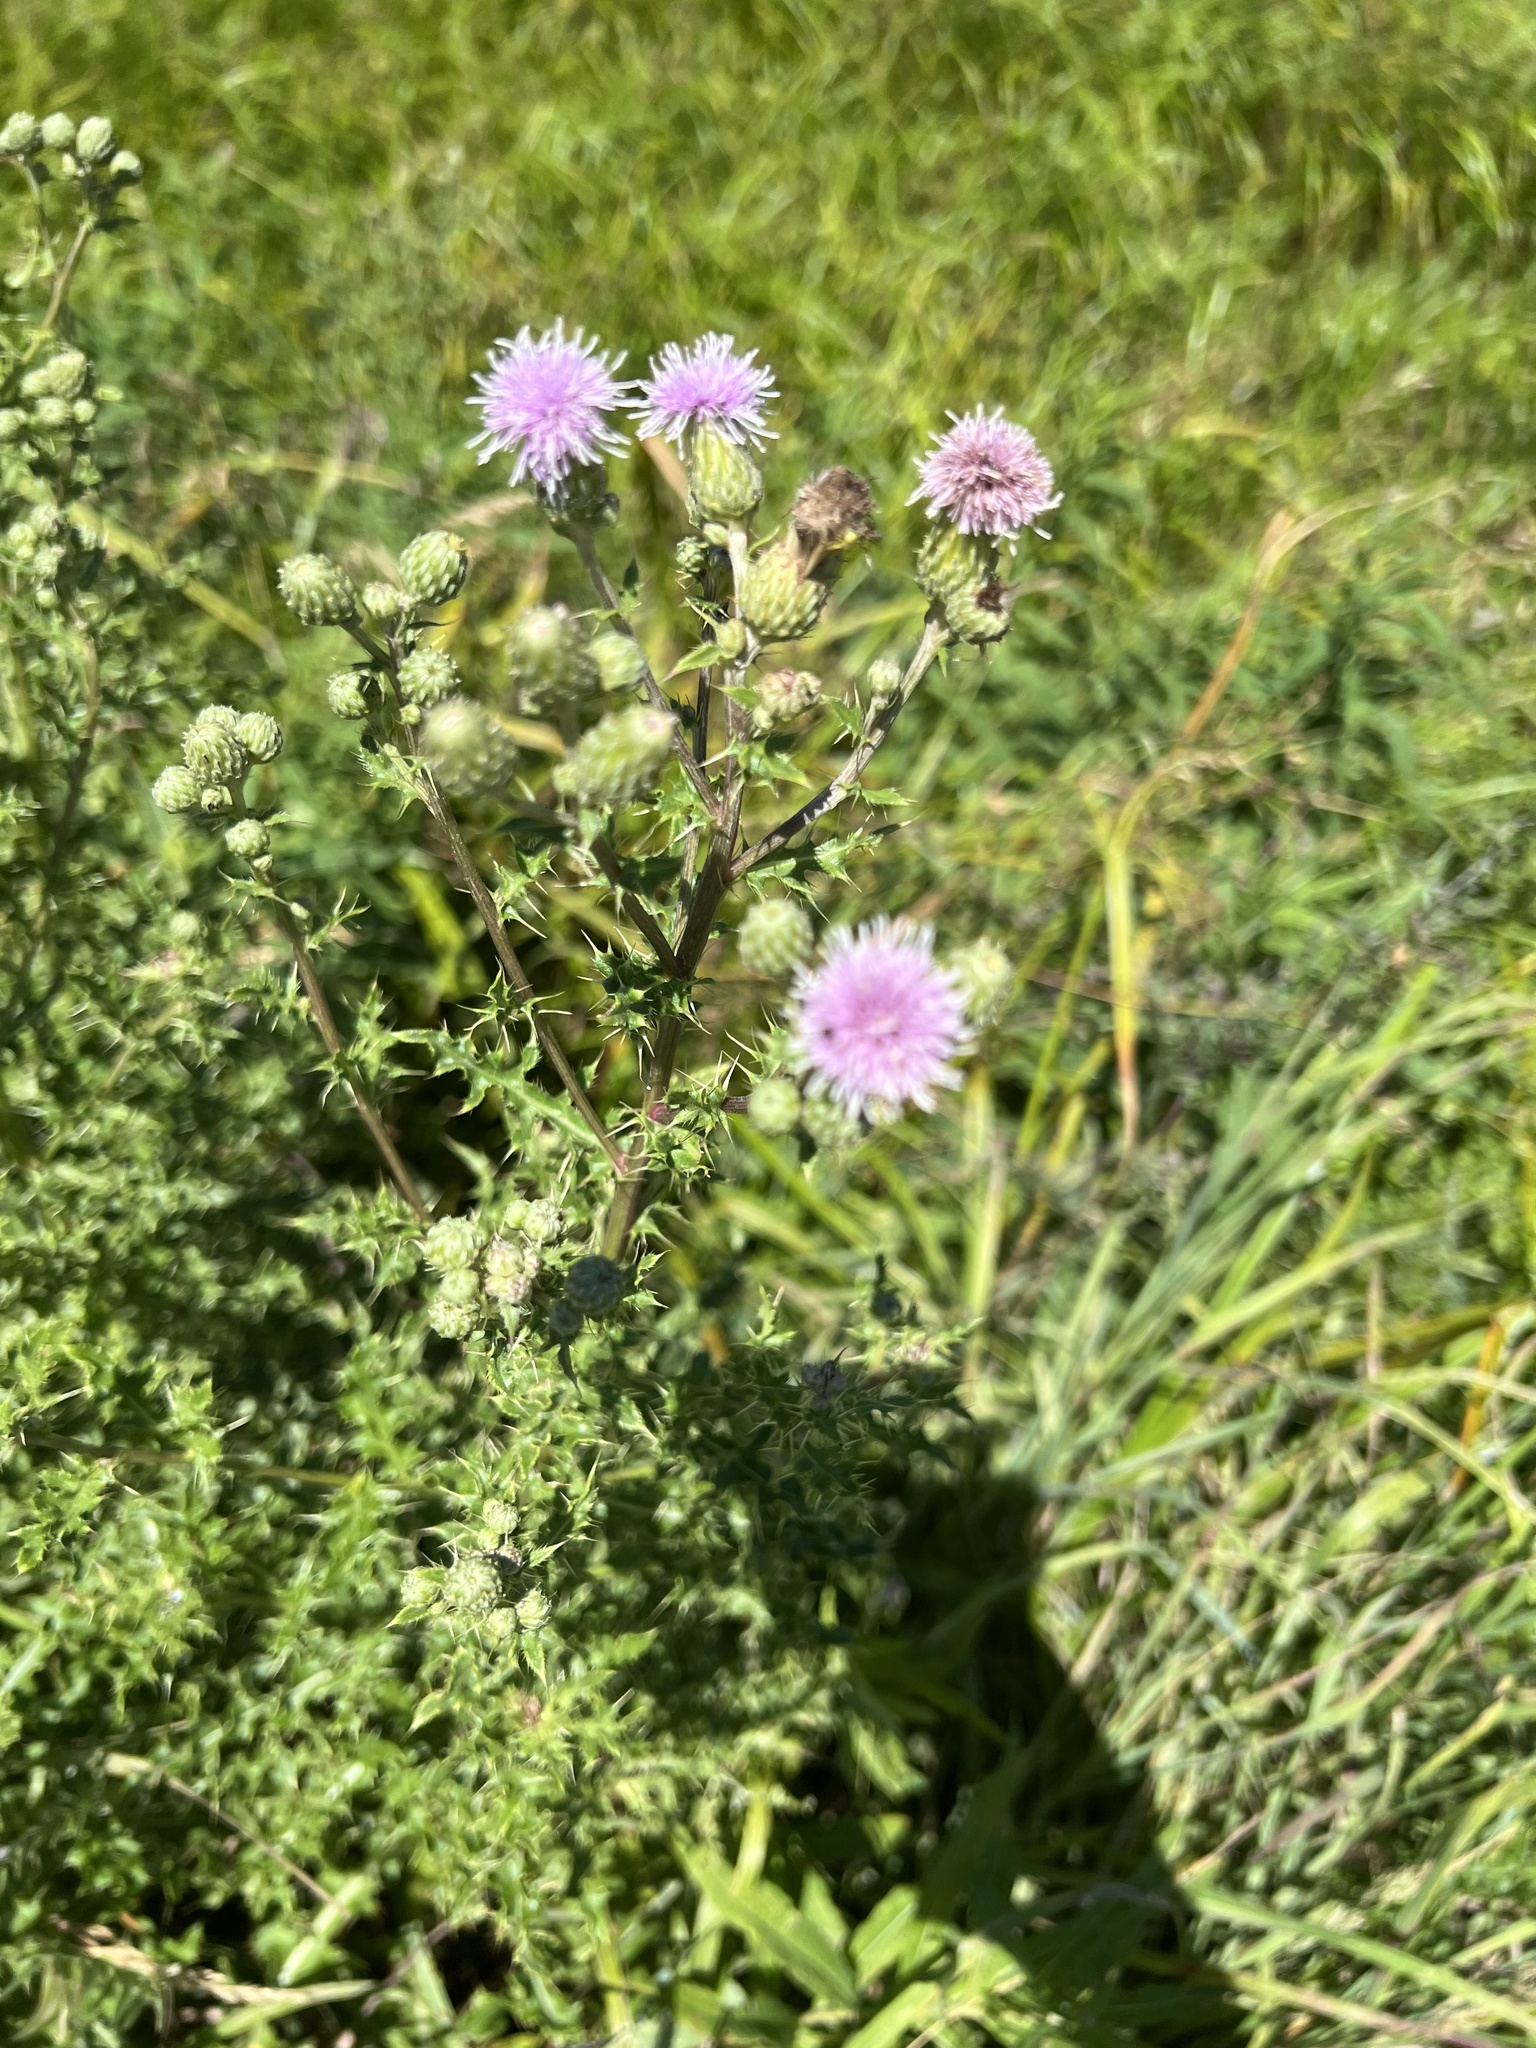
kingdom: Plantae
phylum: Tracheophyta
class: Magnoliopsida
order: Asterales
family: Asteraceae
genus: Cirsium
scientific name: Cirsium arvense
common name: Creeping thistle
